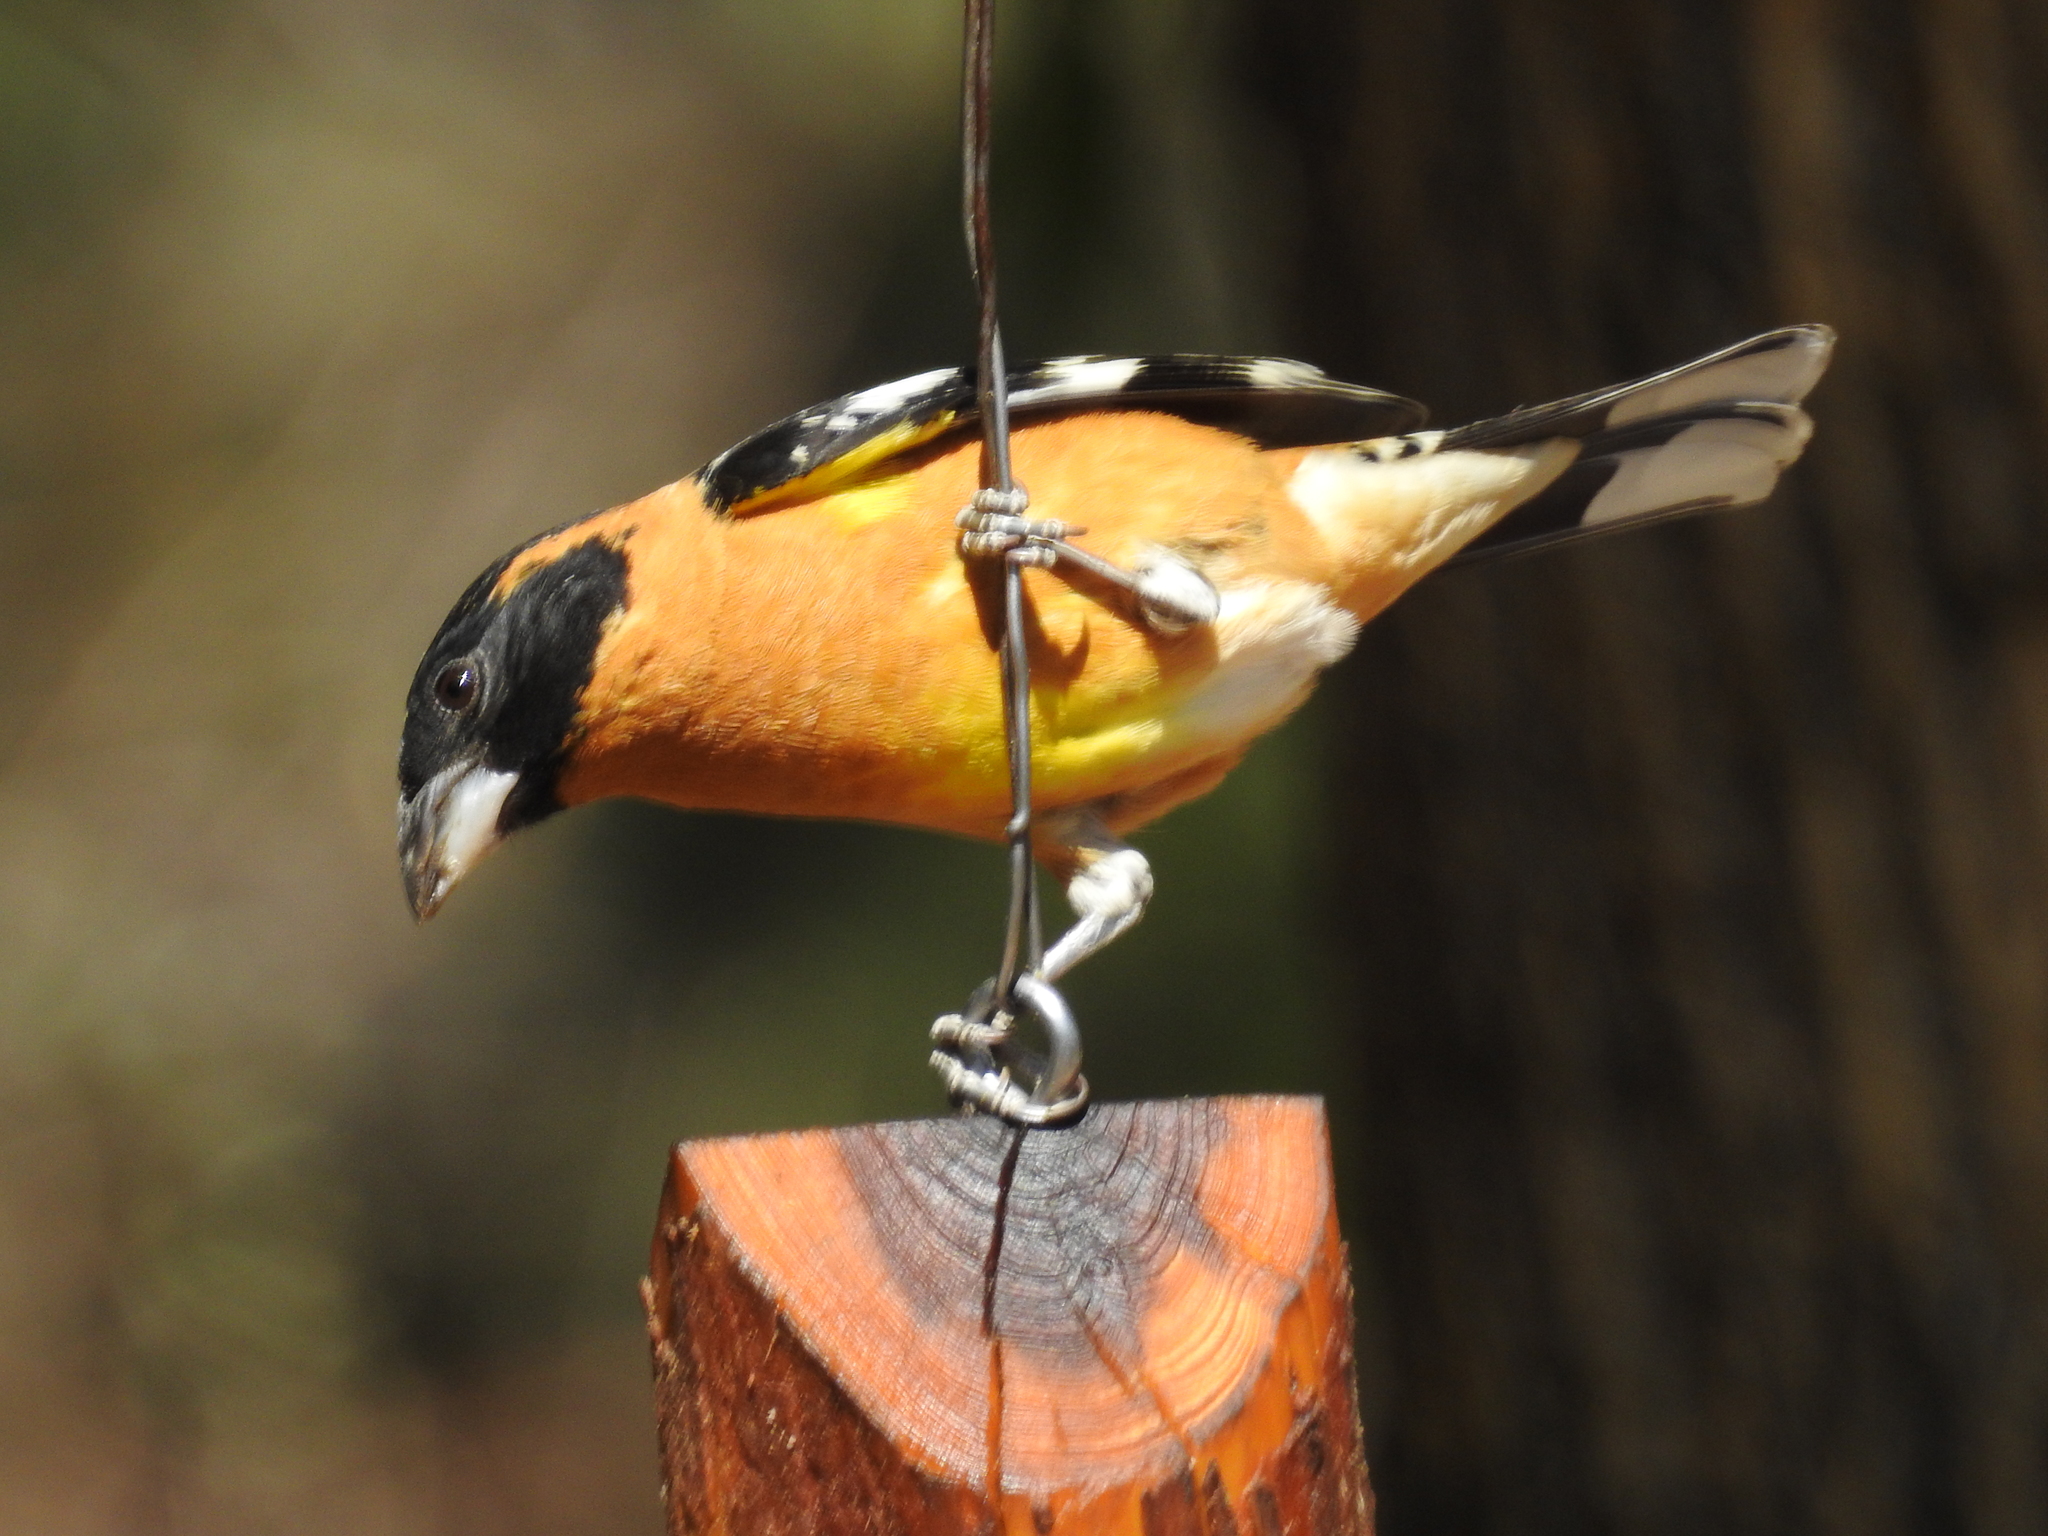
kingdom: Animalia
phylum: Chordata
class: Aves
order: Passeriformes
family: Cardinalidae
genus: Pheucticus
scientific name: Pheucticus melanocephalus
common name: Black-headed grosbeak
